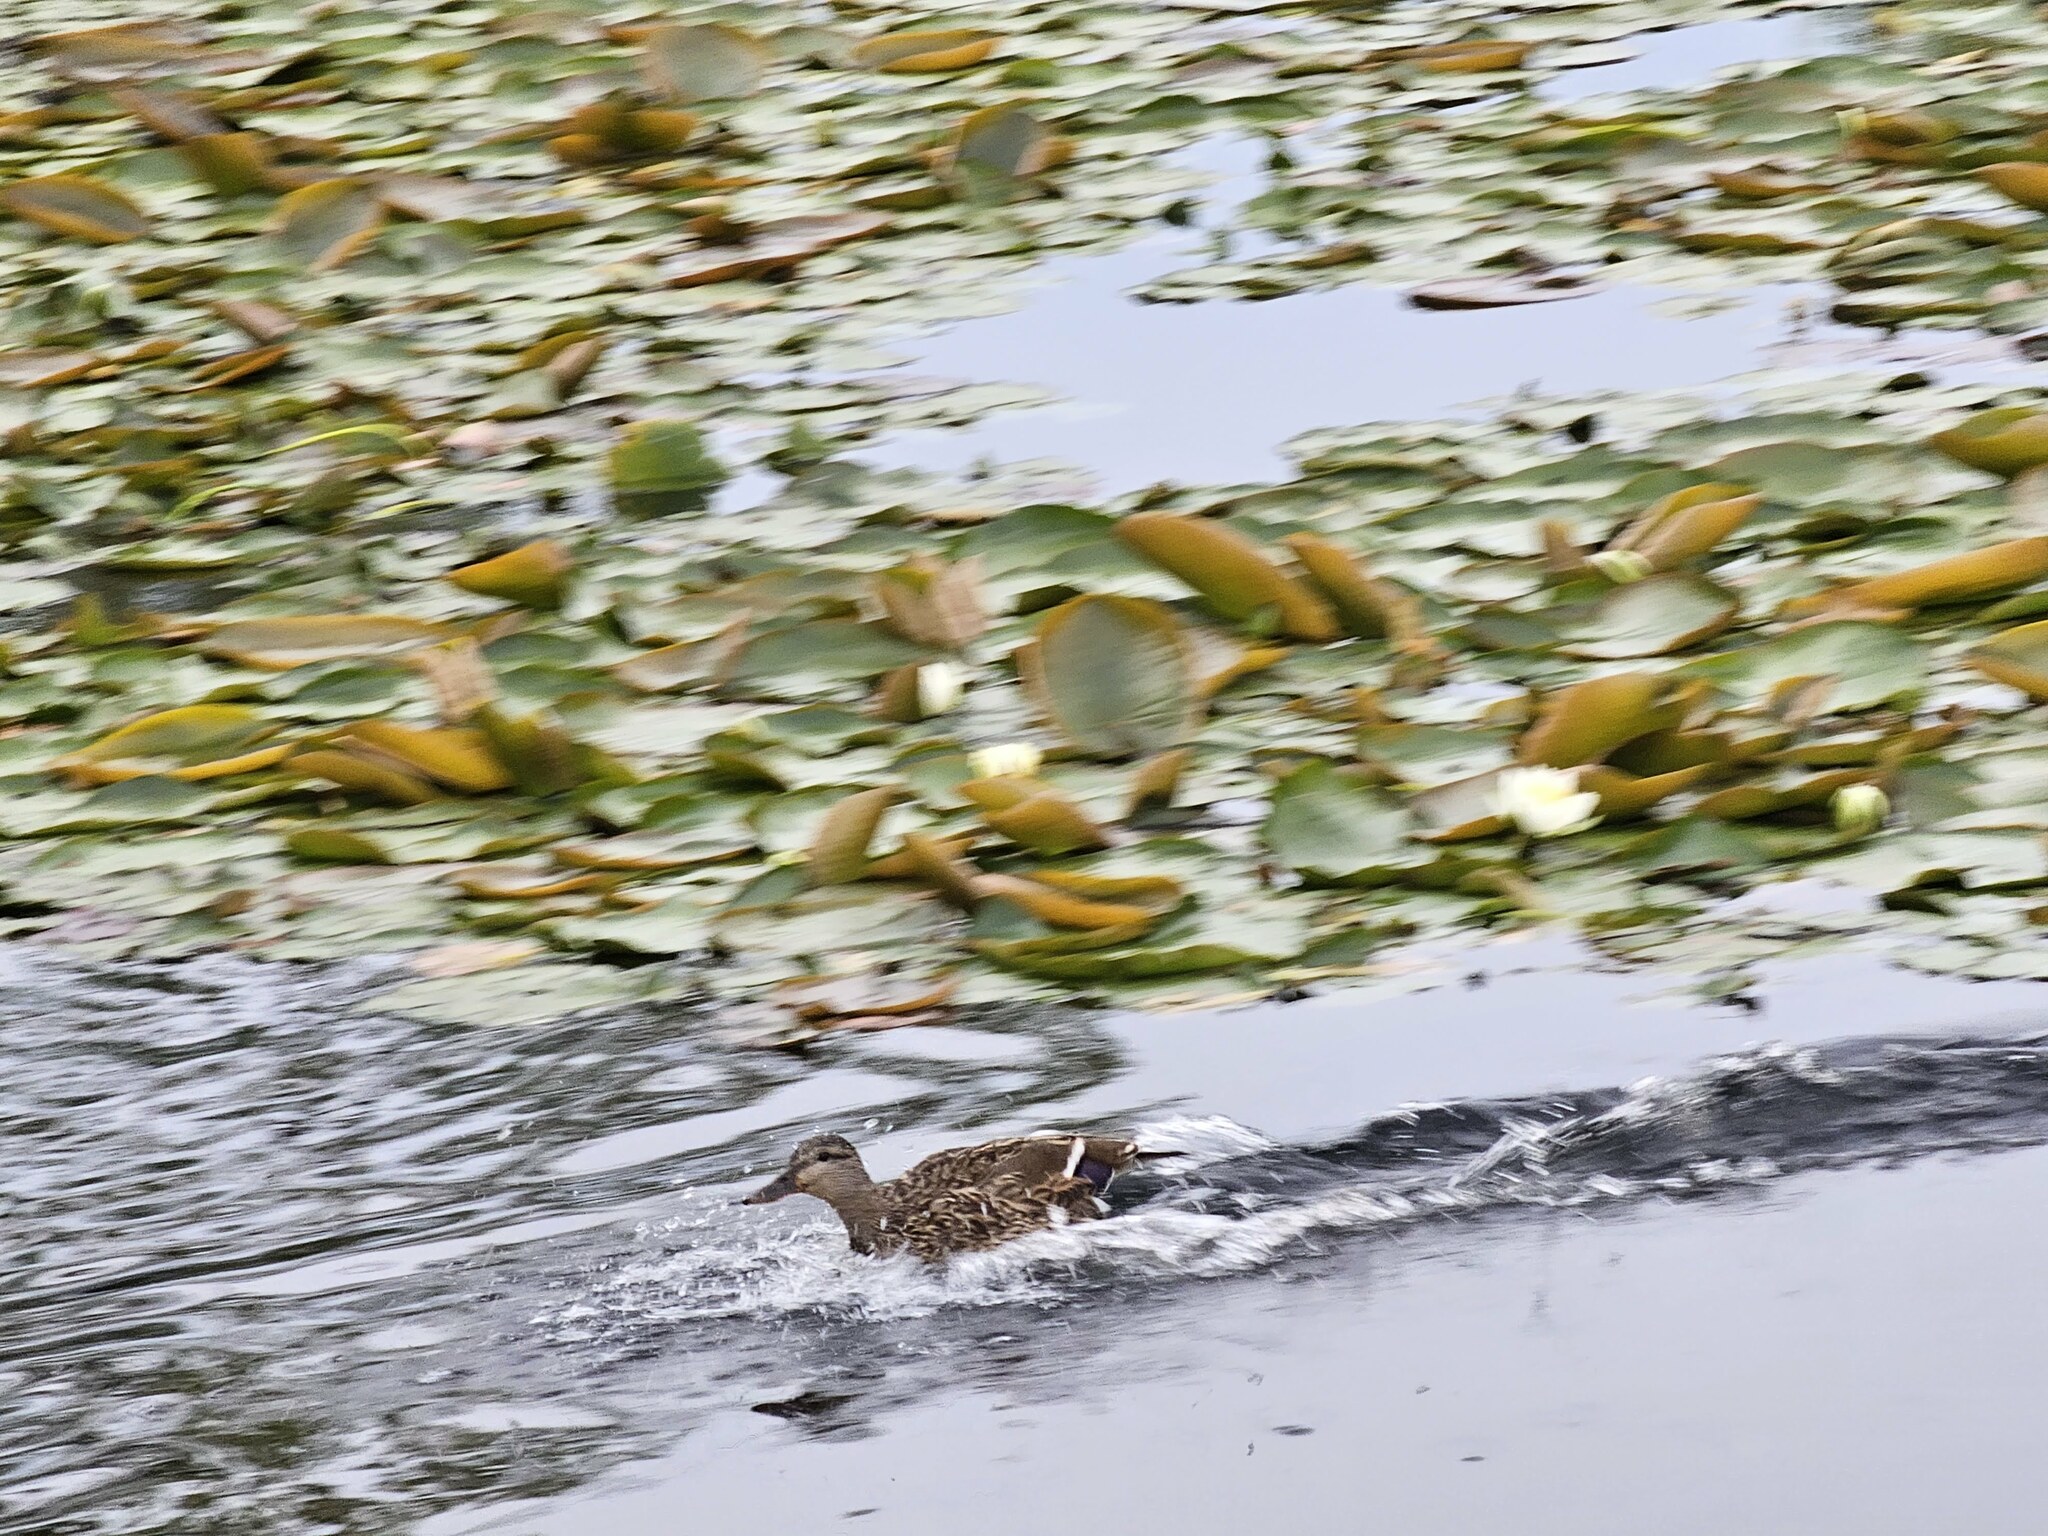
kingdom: Animalia
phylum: Chordata
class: Aves
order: Anseriformes
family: Anatidae
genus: Anas
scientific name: Anas platyrhynchos
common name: Mallard
